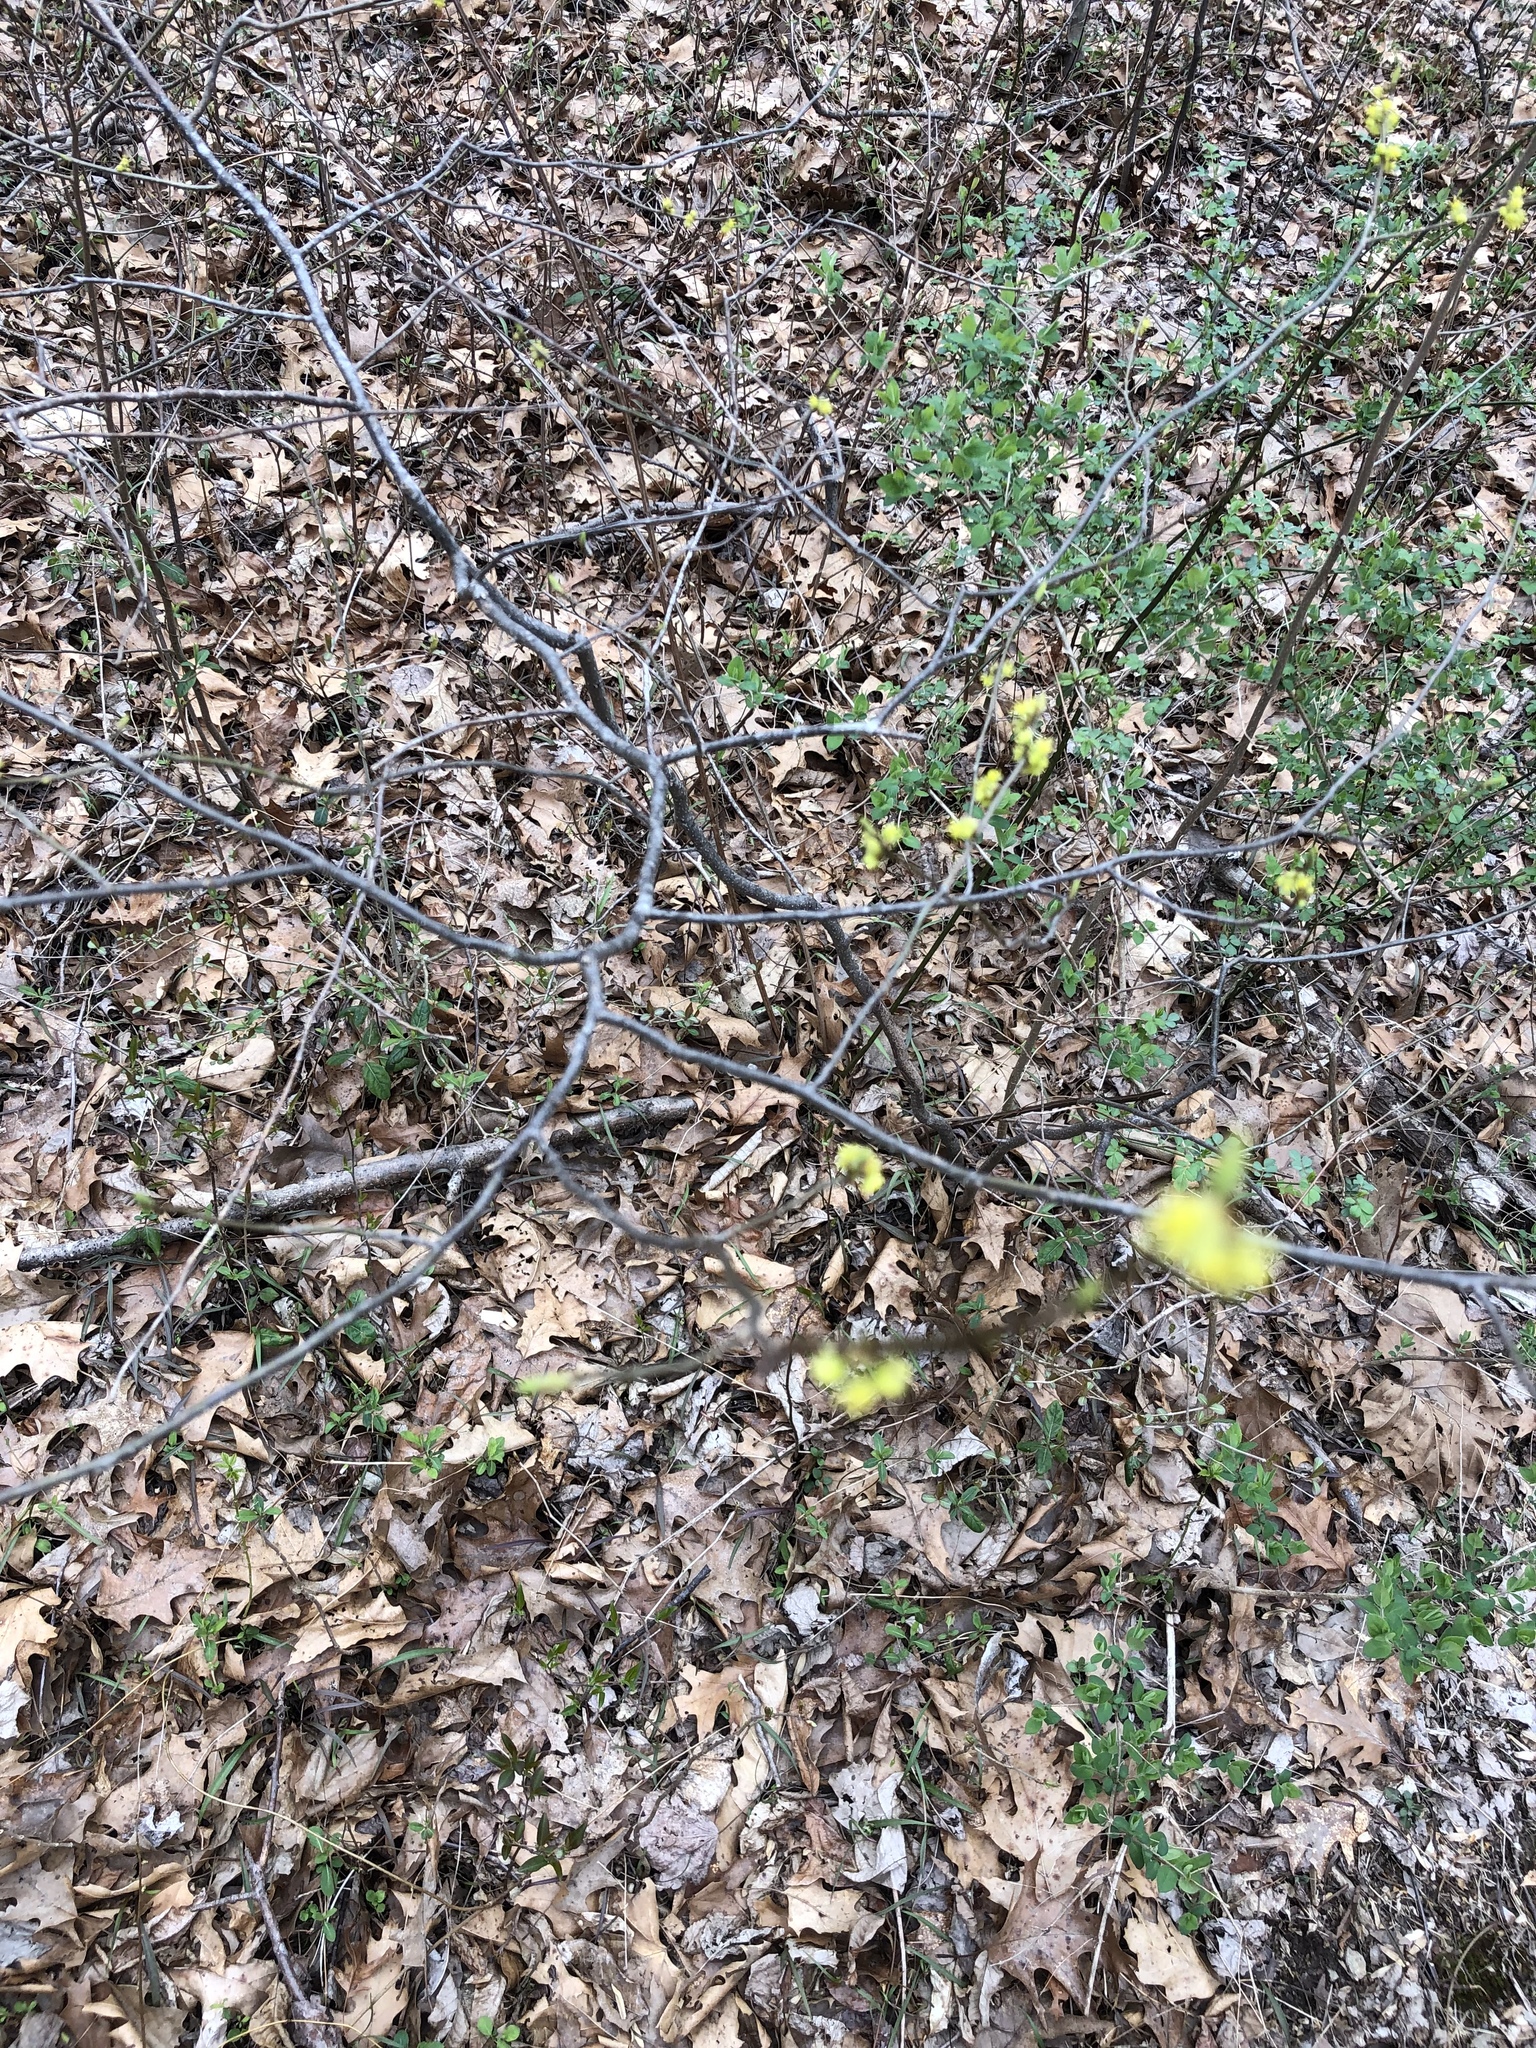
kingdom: Plantae
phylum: Tracheophyta
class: Magnoliopsida
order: Laurales
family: Lauraceae
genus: Lindera
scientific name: Lindera benzoin
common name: Spicebush
